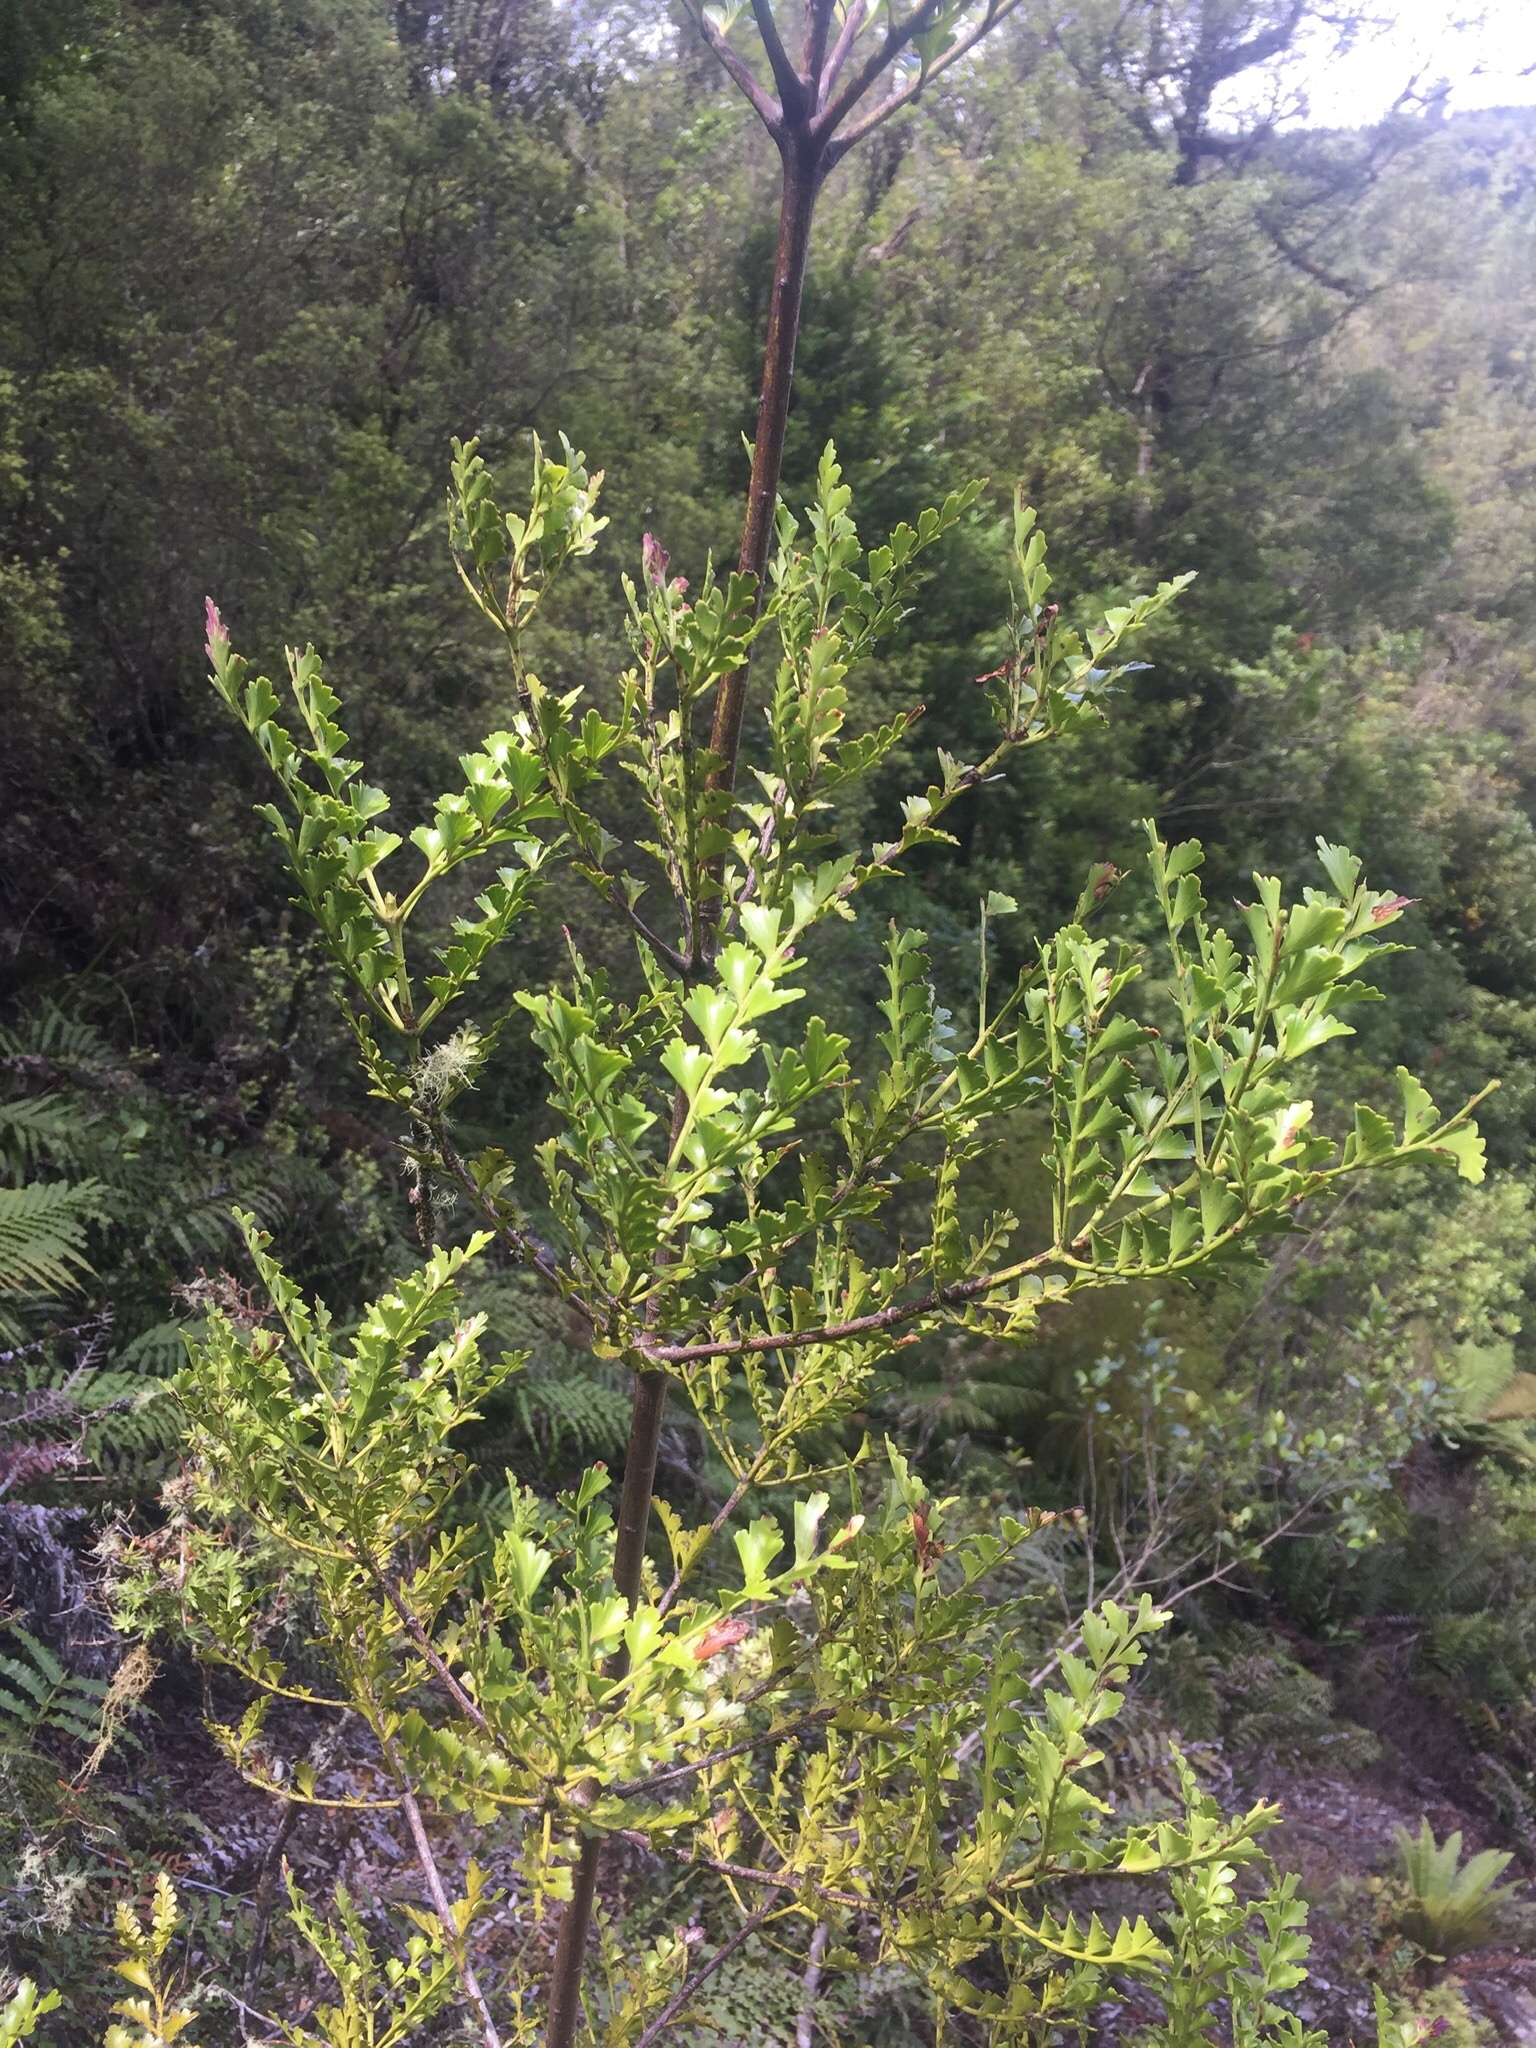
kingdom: Plantae
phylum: Tracheophyta
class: Pinopsida
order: Pinales
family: Phyllocladaceae
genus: Phyllocladus
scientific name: Phyllocladus trichomanoides
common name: Celery pine
